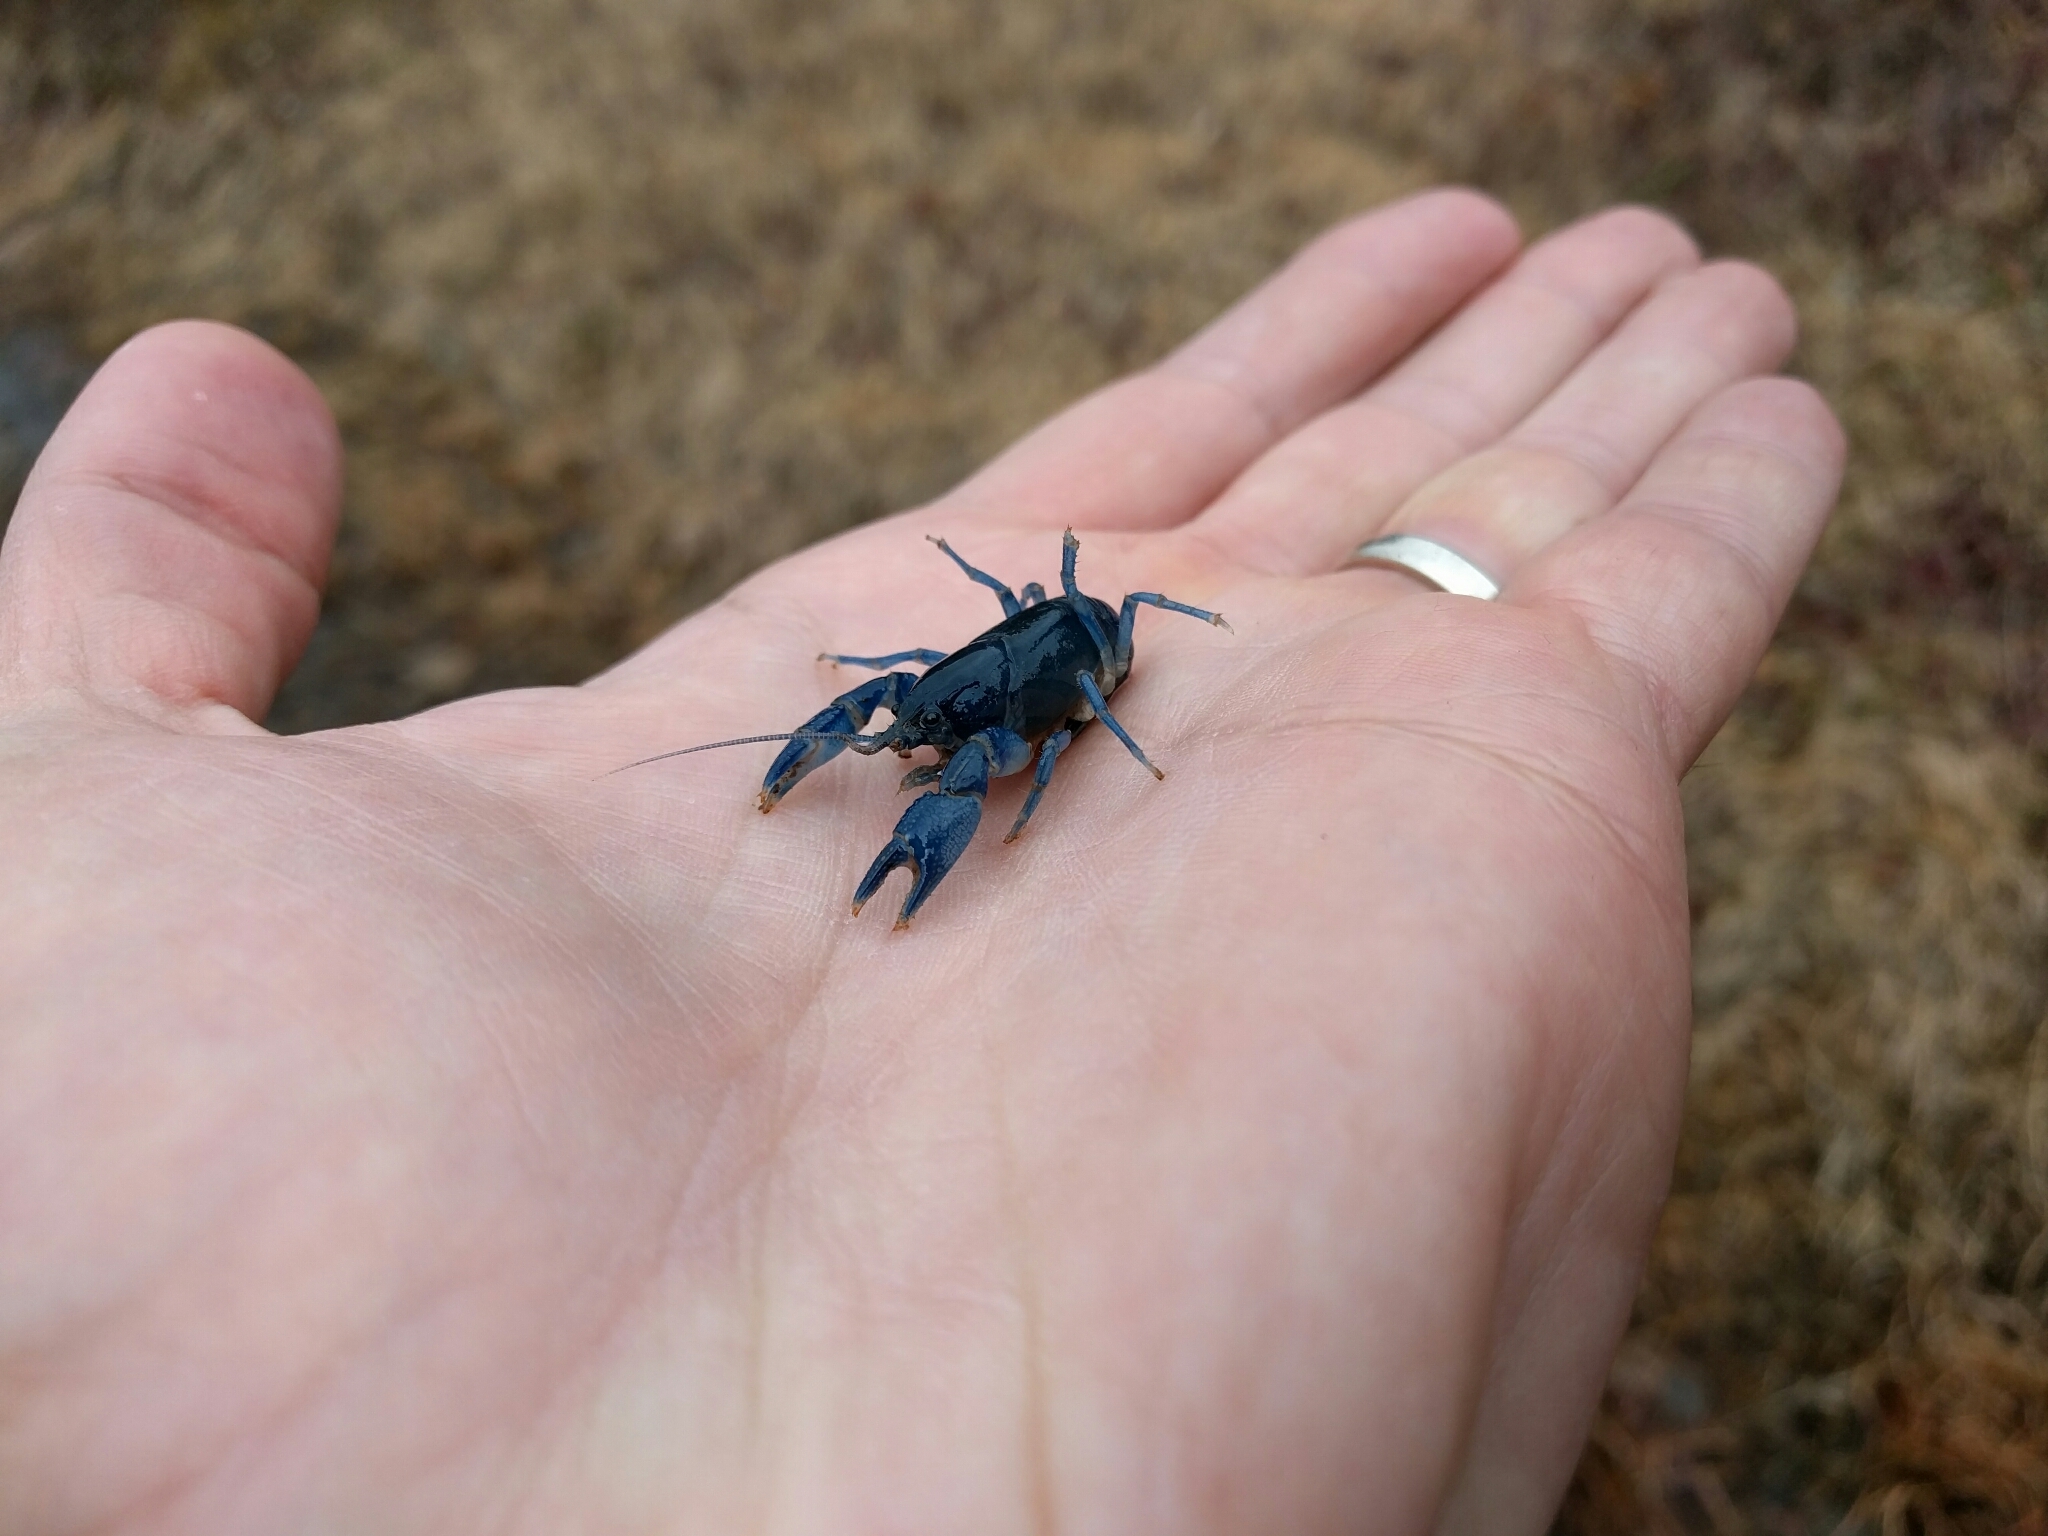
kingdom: Animalia
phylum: Arthropoda
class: Malacostraca
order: Decapoda
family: Cambaridae
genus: Cambarus
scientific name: Cambarus fetzneri
